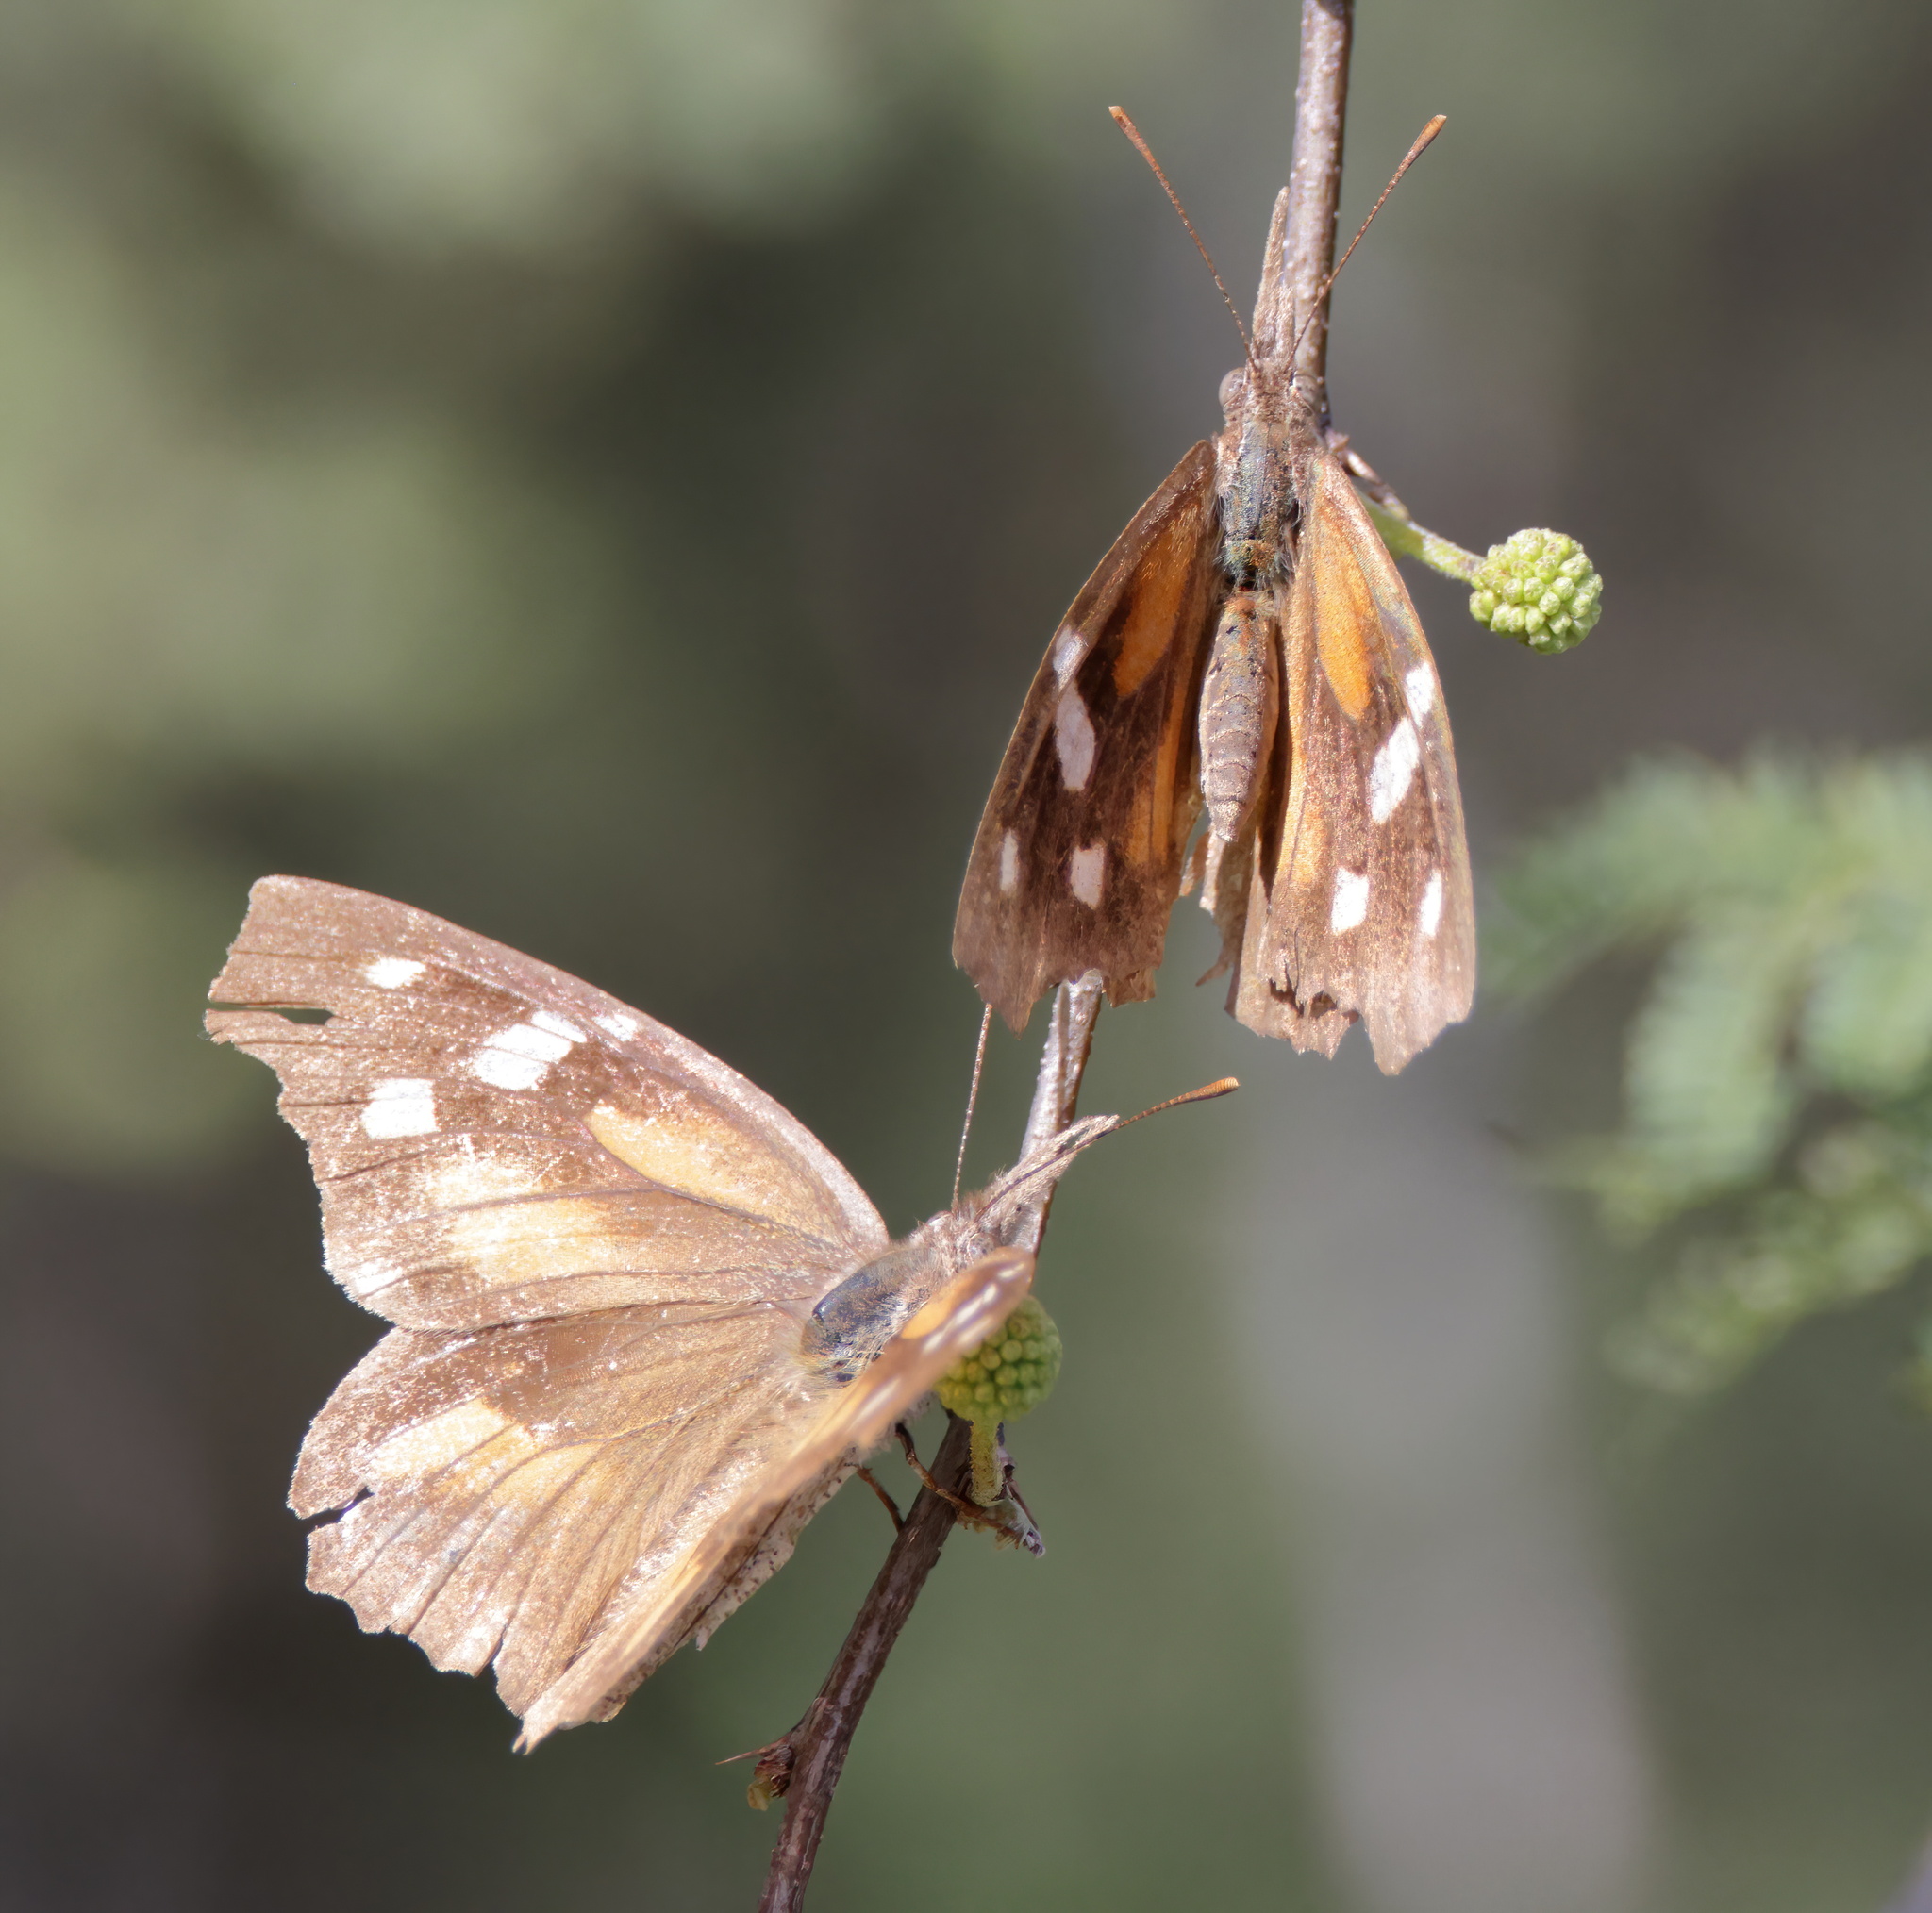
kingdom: Animalia
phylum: Arthropoda
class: Insecta
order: Lepidoptera
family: Nymphalidae
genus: Libytheana
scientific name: Libytheana carinenta
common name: American snout
